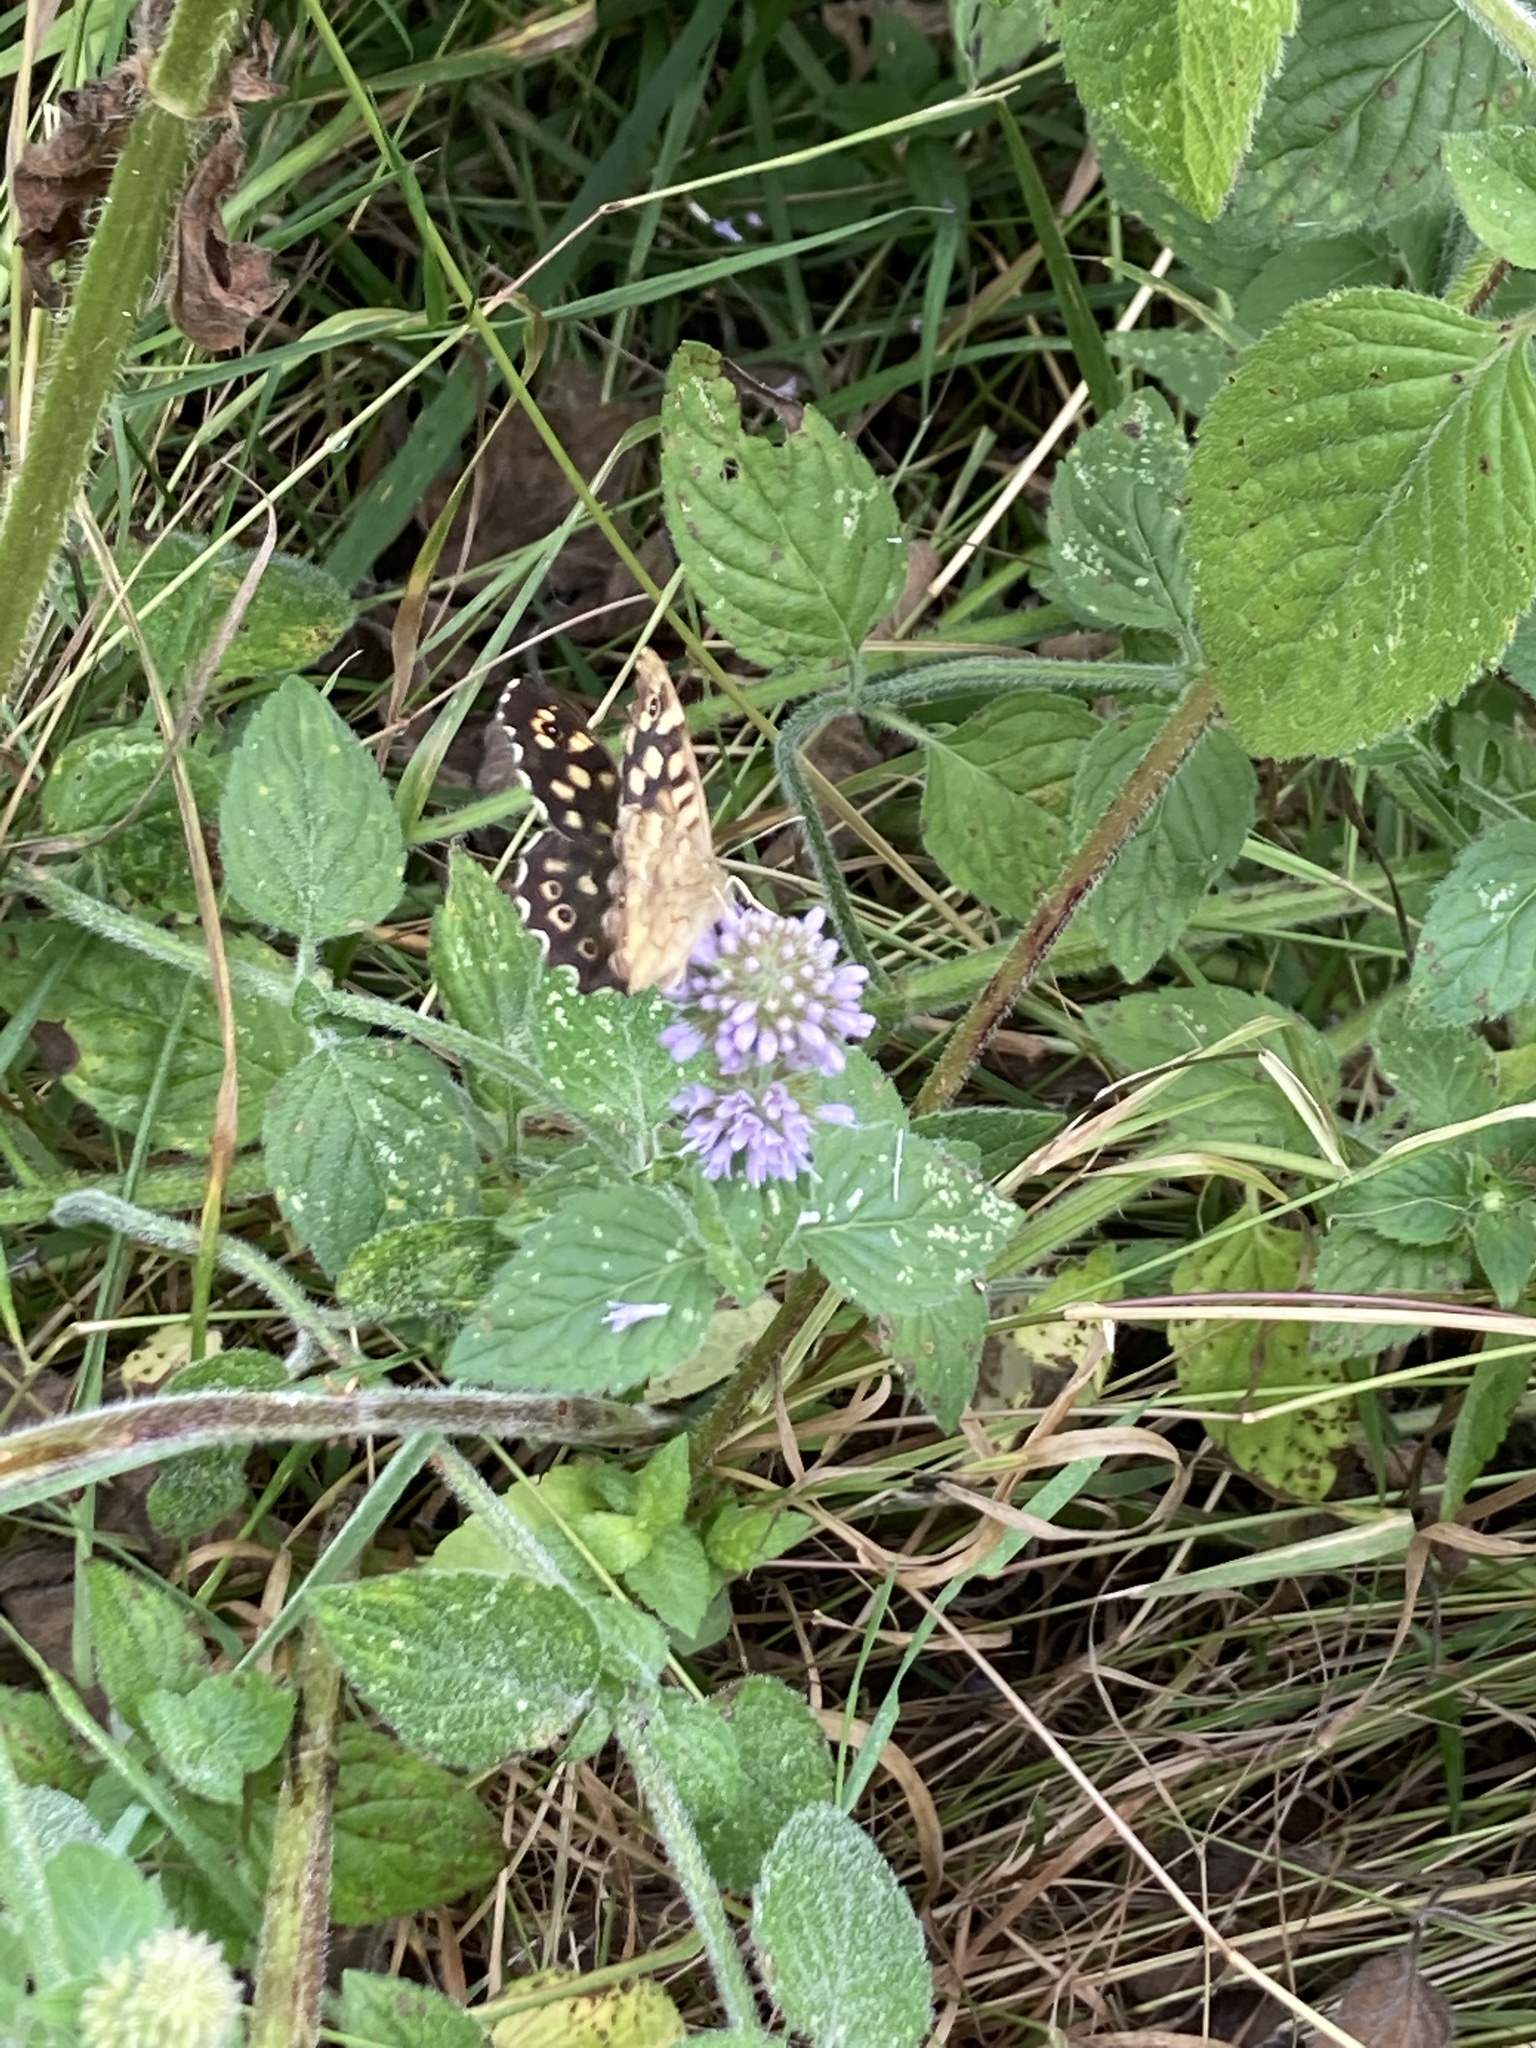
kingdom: Animalia
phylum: Arthropoda
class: Insecta
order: Lepidoptera
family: Nymphalidae
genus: Pararge
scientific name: Pararge aegeria
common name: Speckled wood
